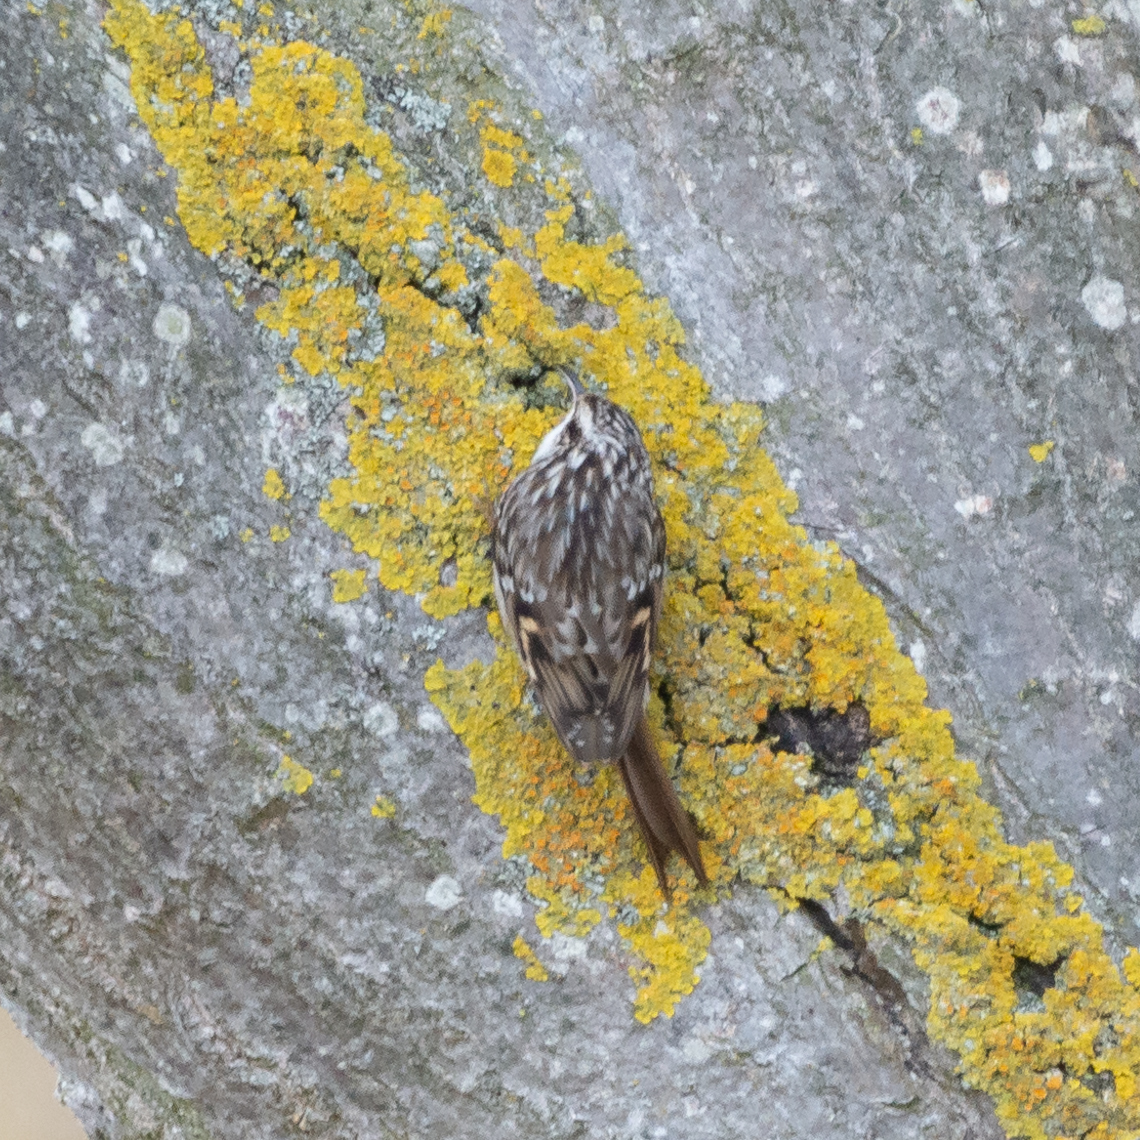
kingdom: Animalia
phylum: Chordata
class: Aves
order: Passeriformes
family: Certhiidae
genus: Certhia
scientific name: Certhia brachydactyla
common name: Short-toed treecreeper
